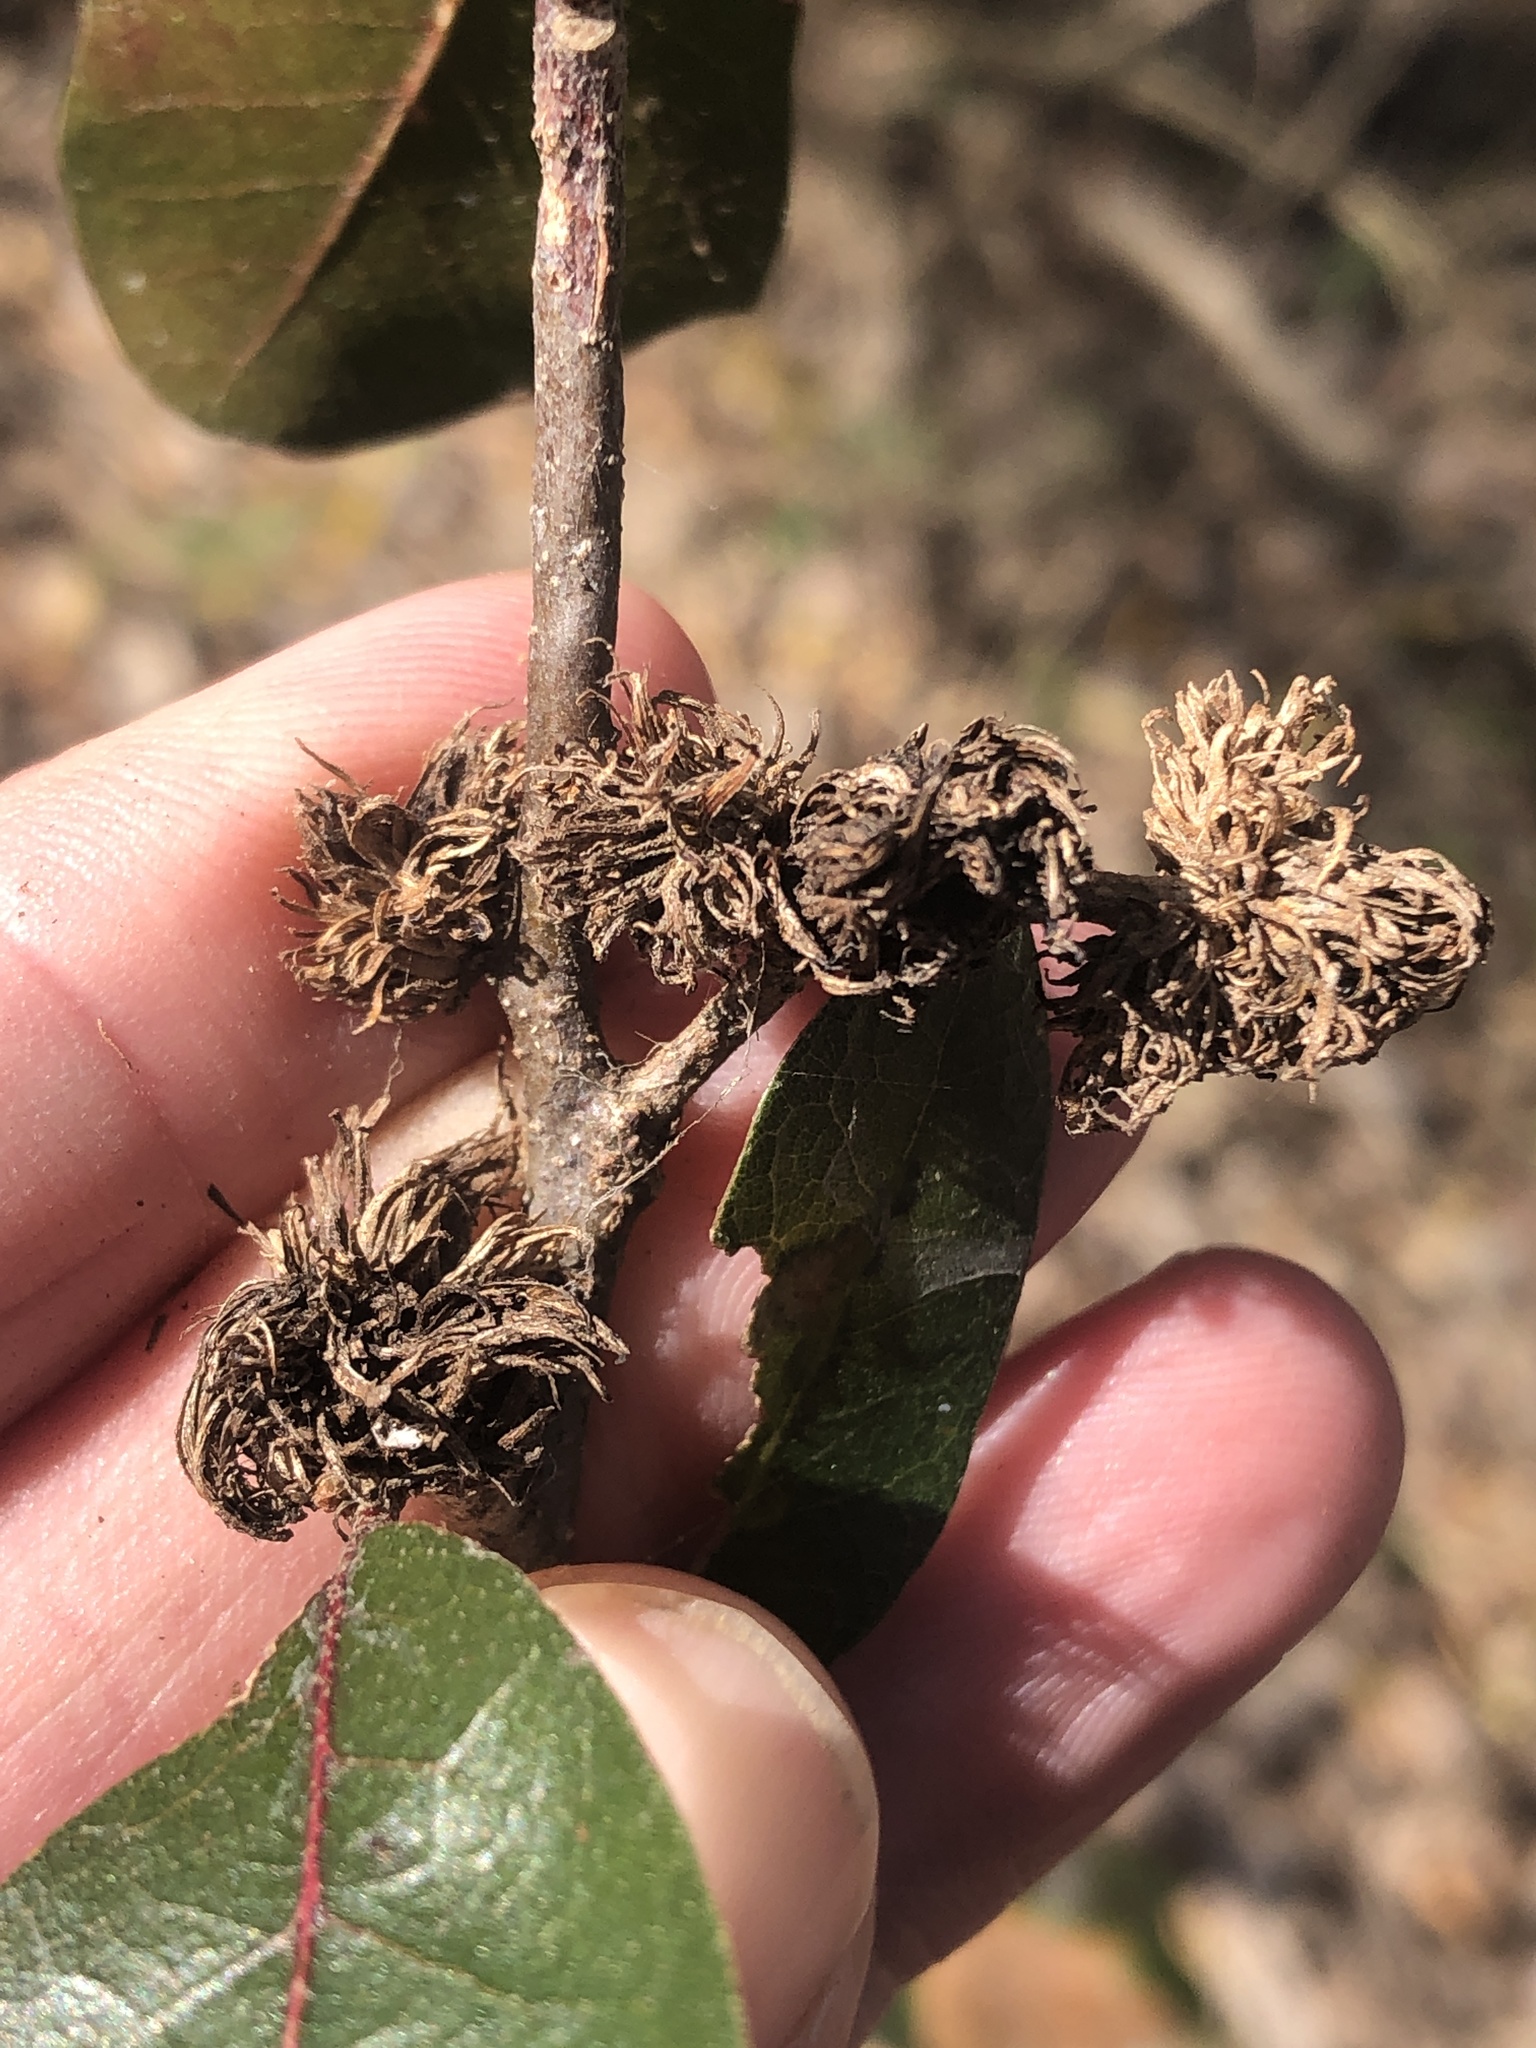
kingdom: Animalia
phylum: Arthropoda
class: Insecta
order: Hymenoptera
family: Cynipidae
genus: Andricus
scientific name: Andricus quercusfoliatus
